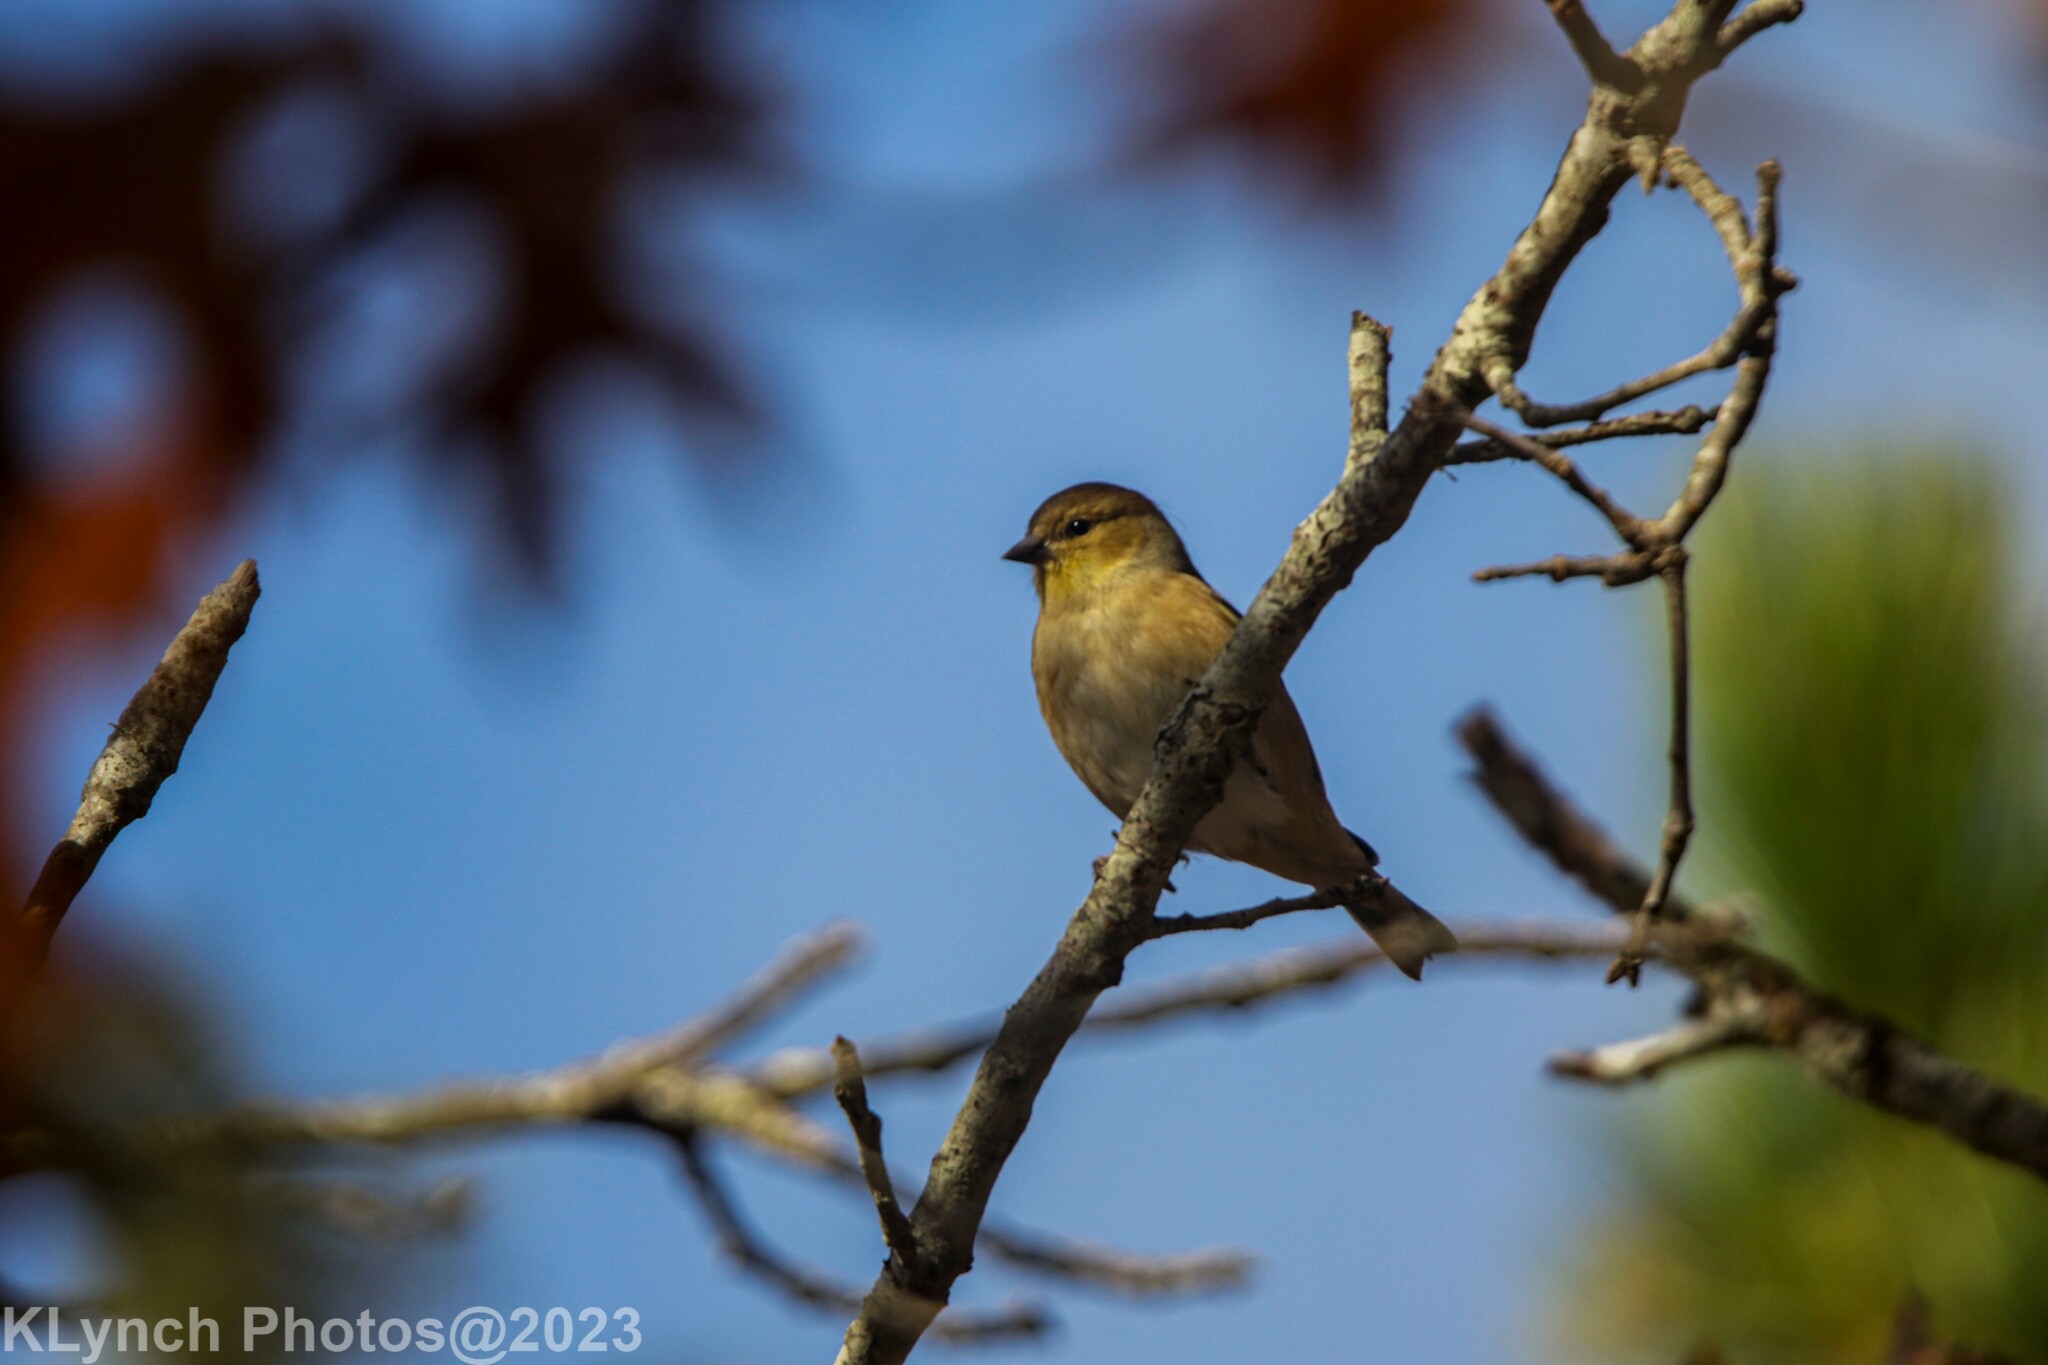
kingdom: Animalia
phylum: Chordata
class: Aves
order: Passeriformes
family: Fringillidae
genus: Spinus
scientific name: Spinus tristis
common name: American goldfinch
